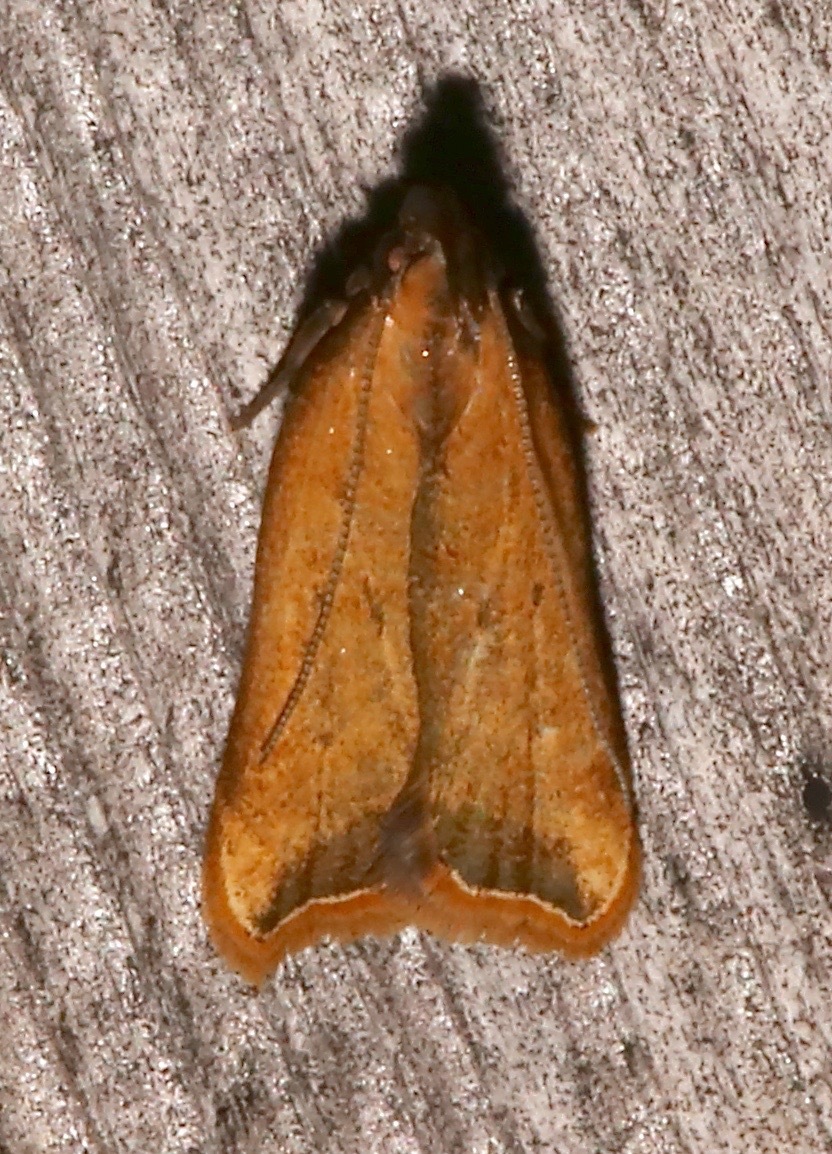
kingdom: Animalia
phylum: Arthropoda
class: Insecta
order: Lepidoptera
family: Gelechiidae
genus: Dichomeris
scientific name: Dichomeris heriguronis
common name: Black-edged dichomeris moth
